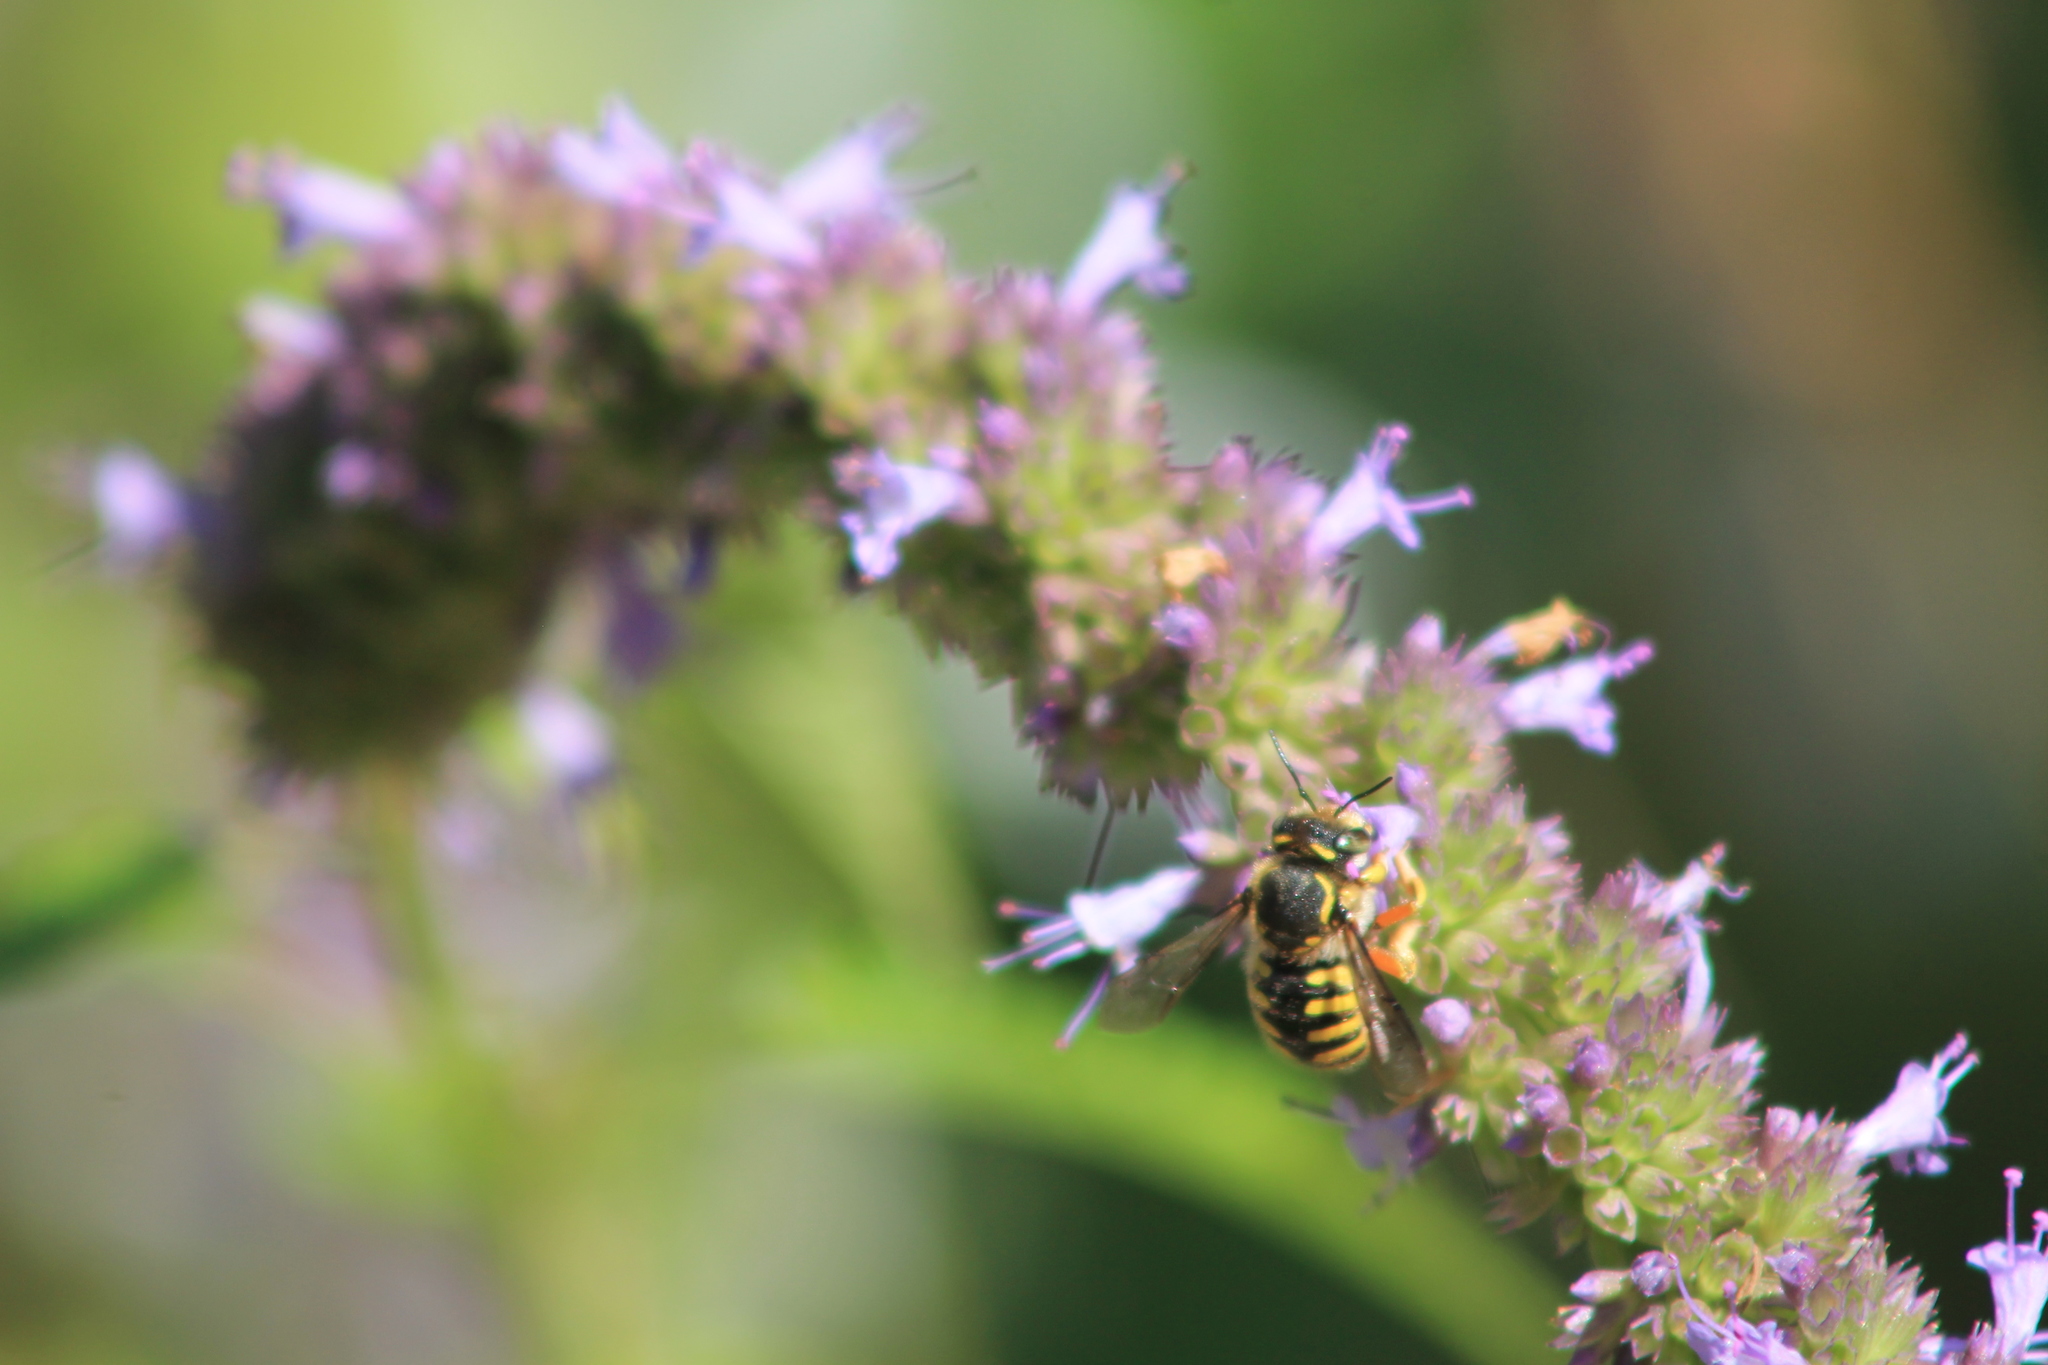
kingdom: Animalia
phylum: Arthropoda
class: Insecta
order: Hymenoptera
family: Megachilidae
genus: Anthidium
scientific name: Anthidium manicatum
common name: Wool carder bee
